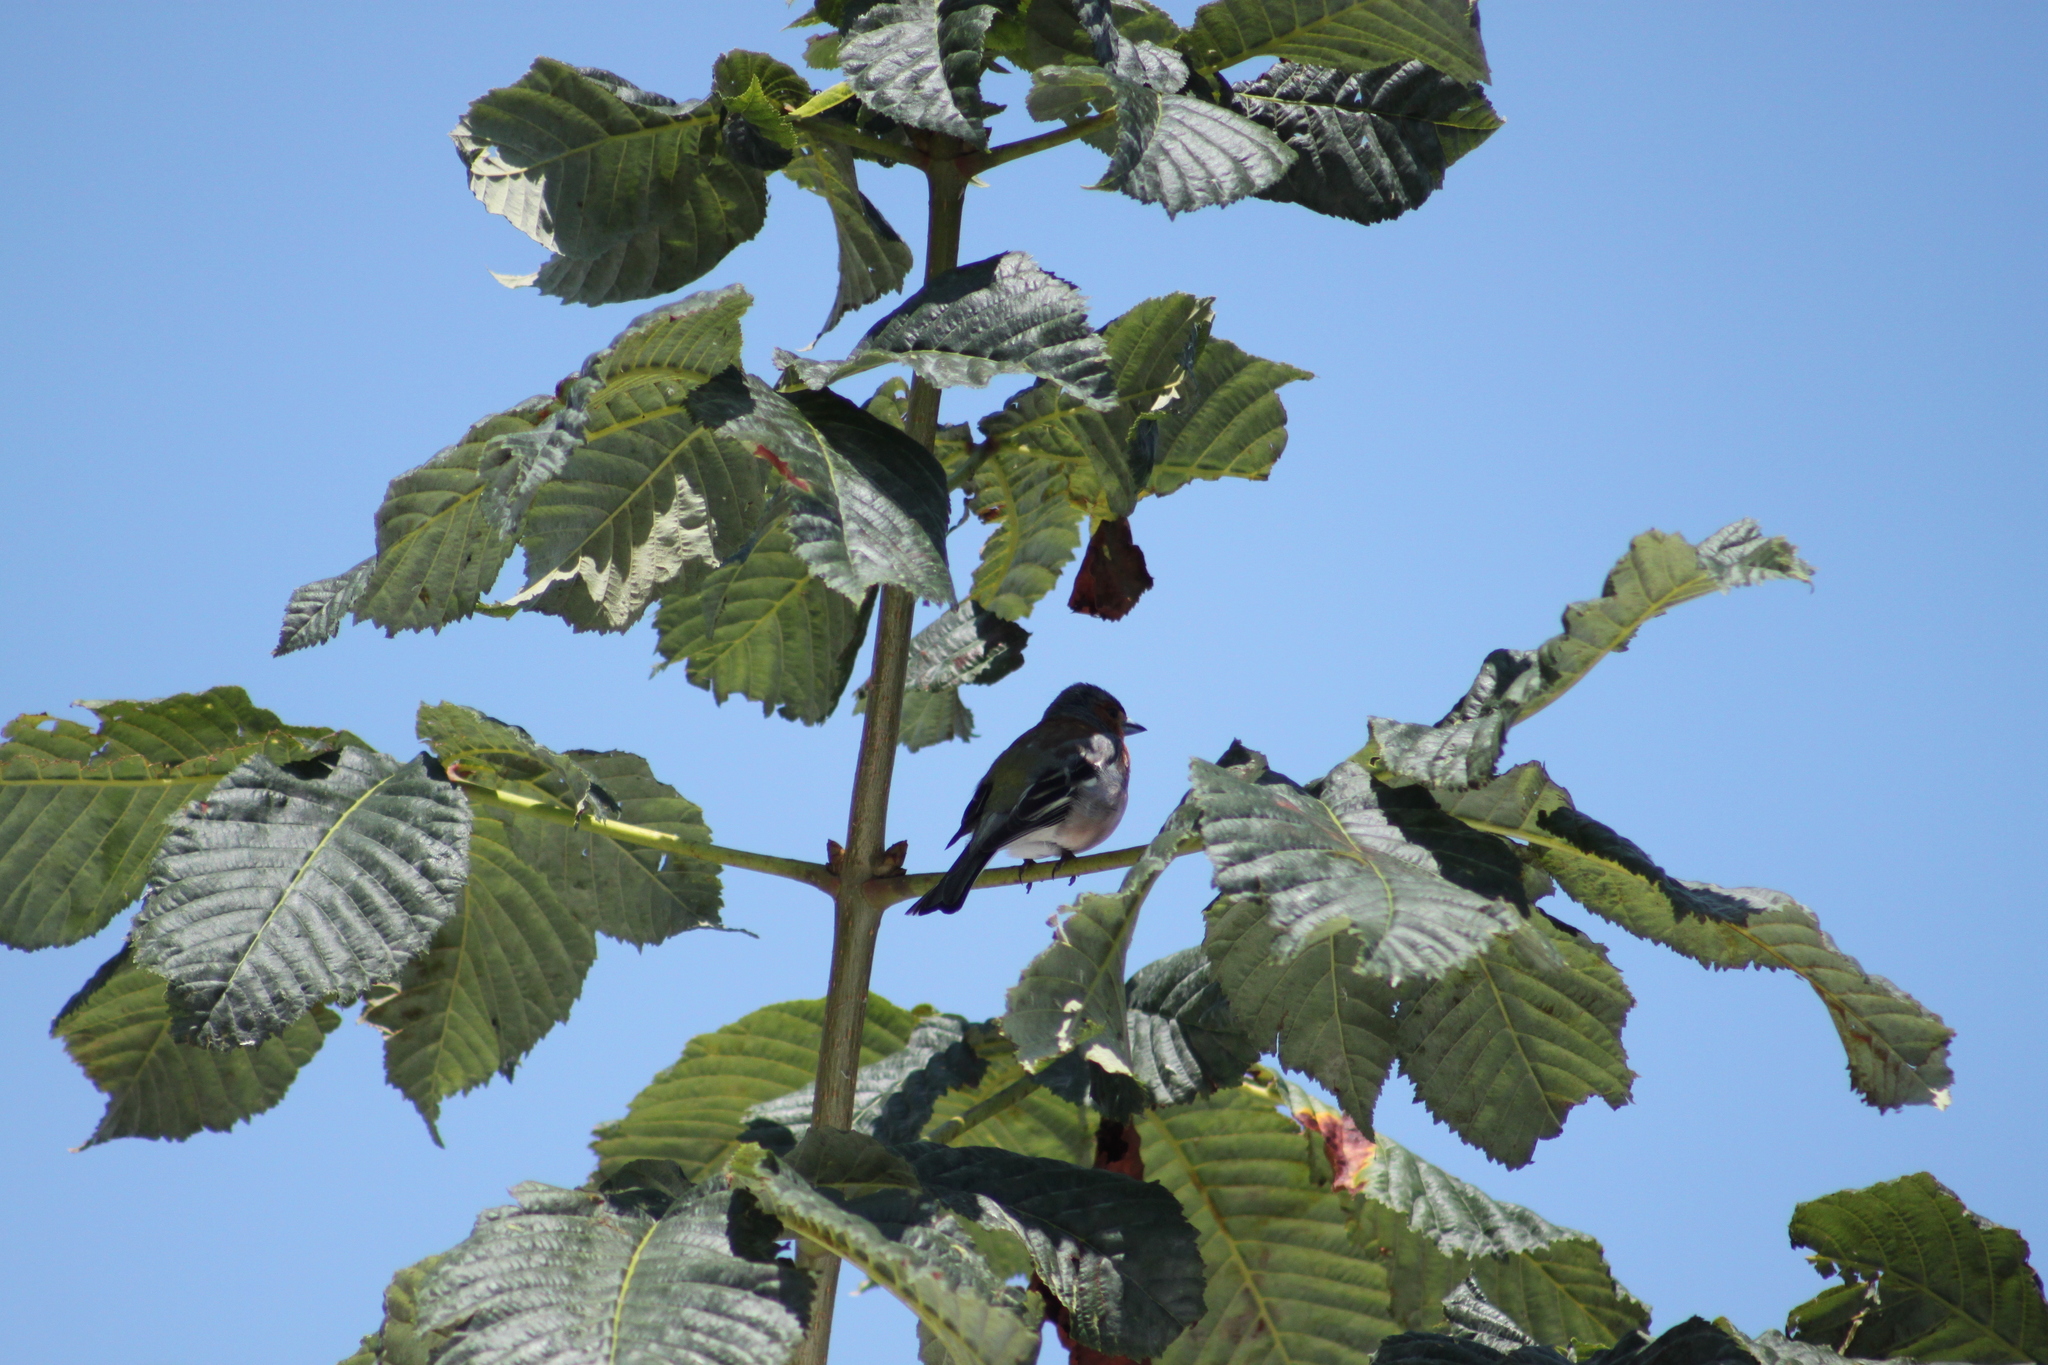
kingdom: Animalia
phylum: Chordata
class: Aves
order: Passeriformes
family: Fringillidae
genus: Fringilla
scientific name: Fringilla coelebs
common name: Common chaffinch
